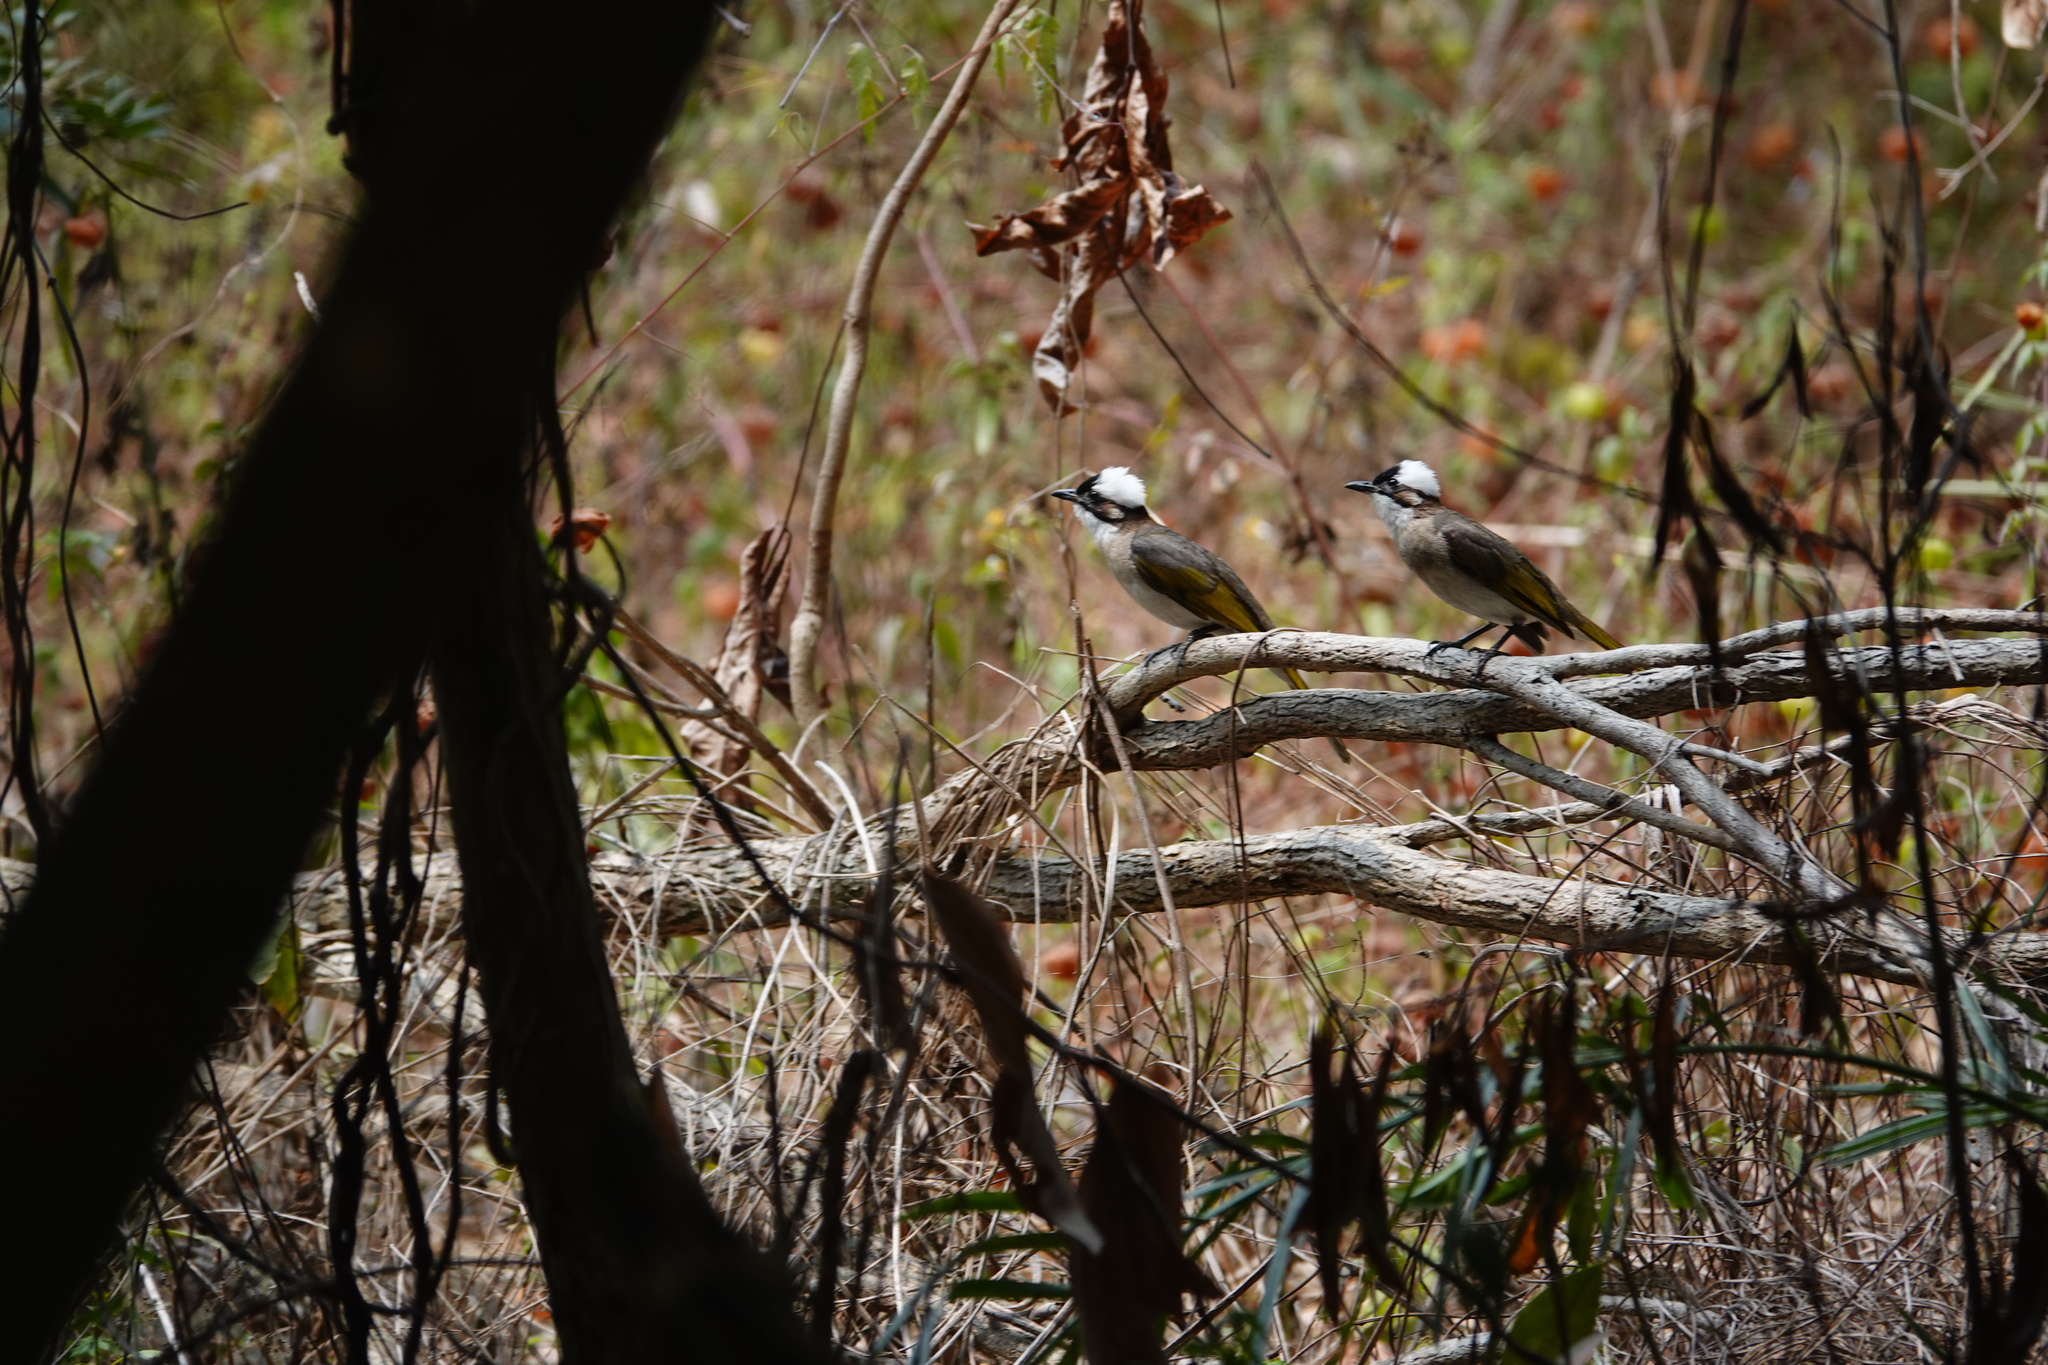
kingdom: Animalia
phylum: Chordata
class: Aves
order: Passeriformes
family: Pycnonotidae
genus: Pycnonotus
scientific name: Pycnonotus sinensis
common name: Light-vented bulbul
